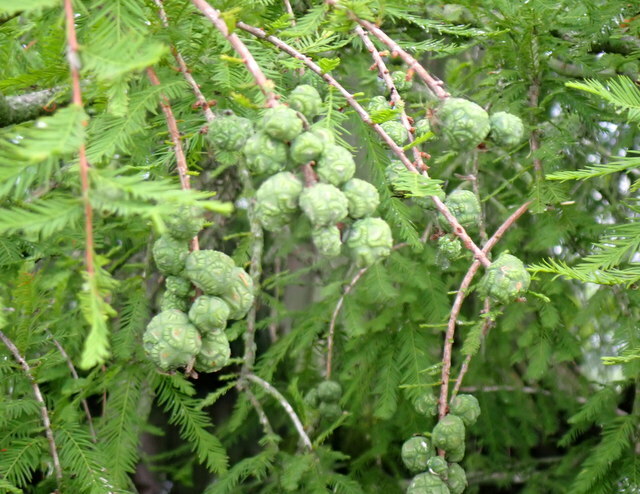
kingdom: Plantae
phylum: Tracheophyta
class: Pinopsida
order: Pinales
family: Cupressaceae
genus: Taxodium
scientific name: Taxodium distichum
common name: Bald cypress
